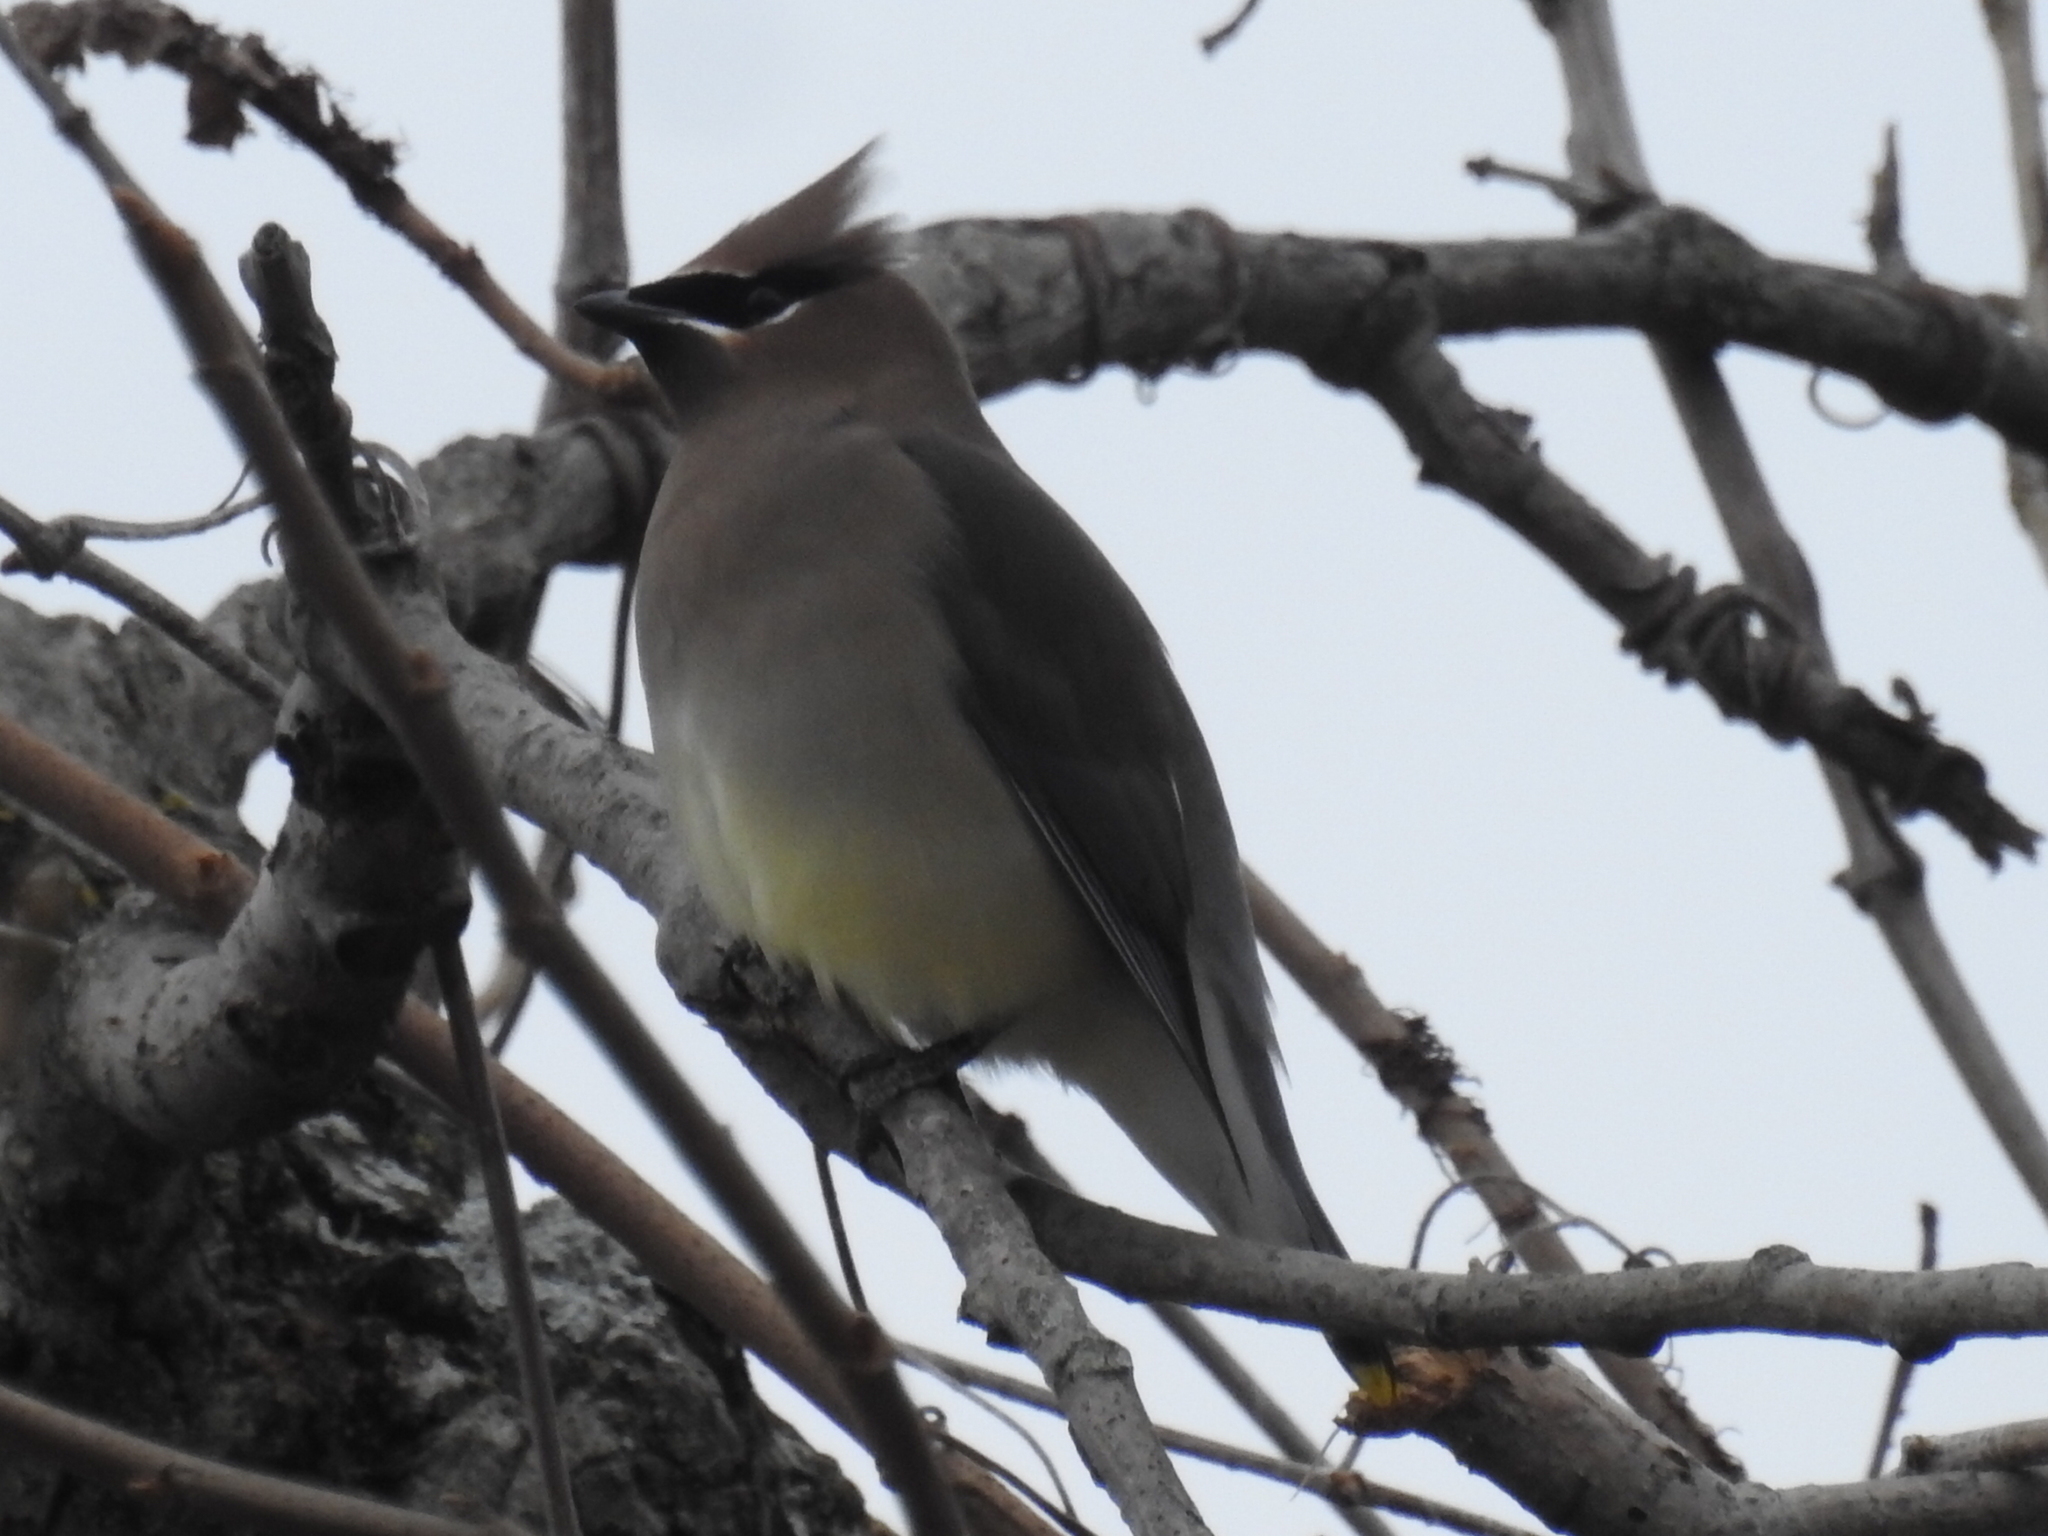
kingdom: Animalia
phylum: Chordata
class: Aves
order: Passeriformes
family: Bombycillidae
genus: Bombycilla
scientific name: Bombycilla cedrorum
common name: Cedar waxwing
